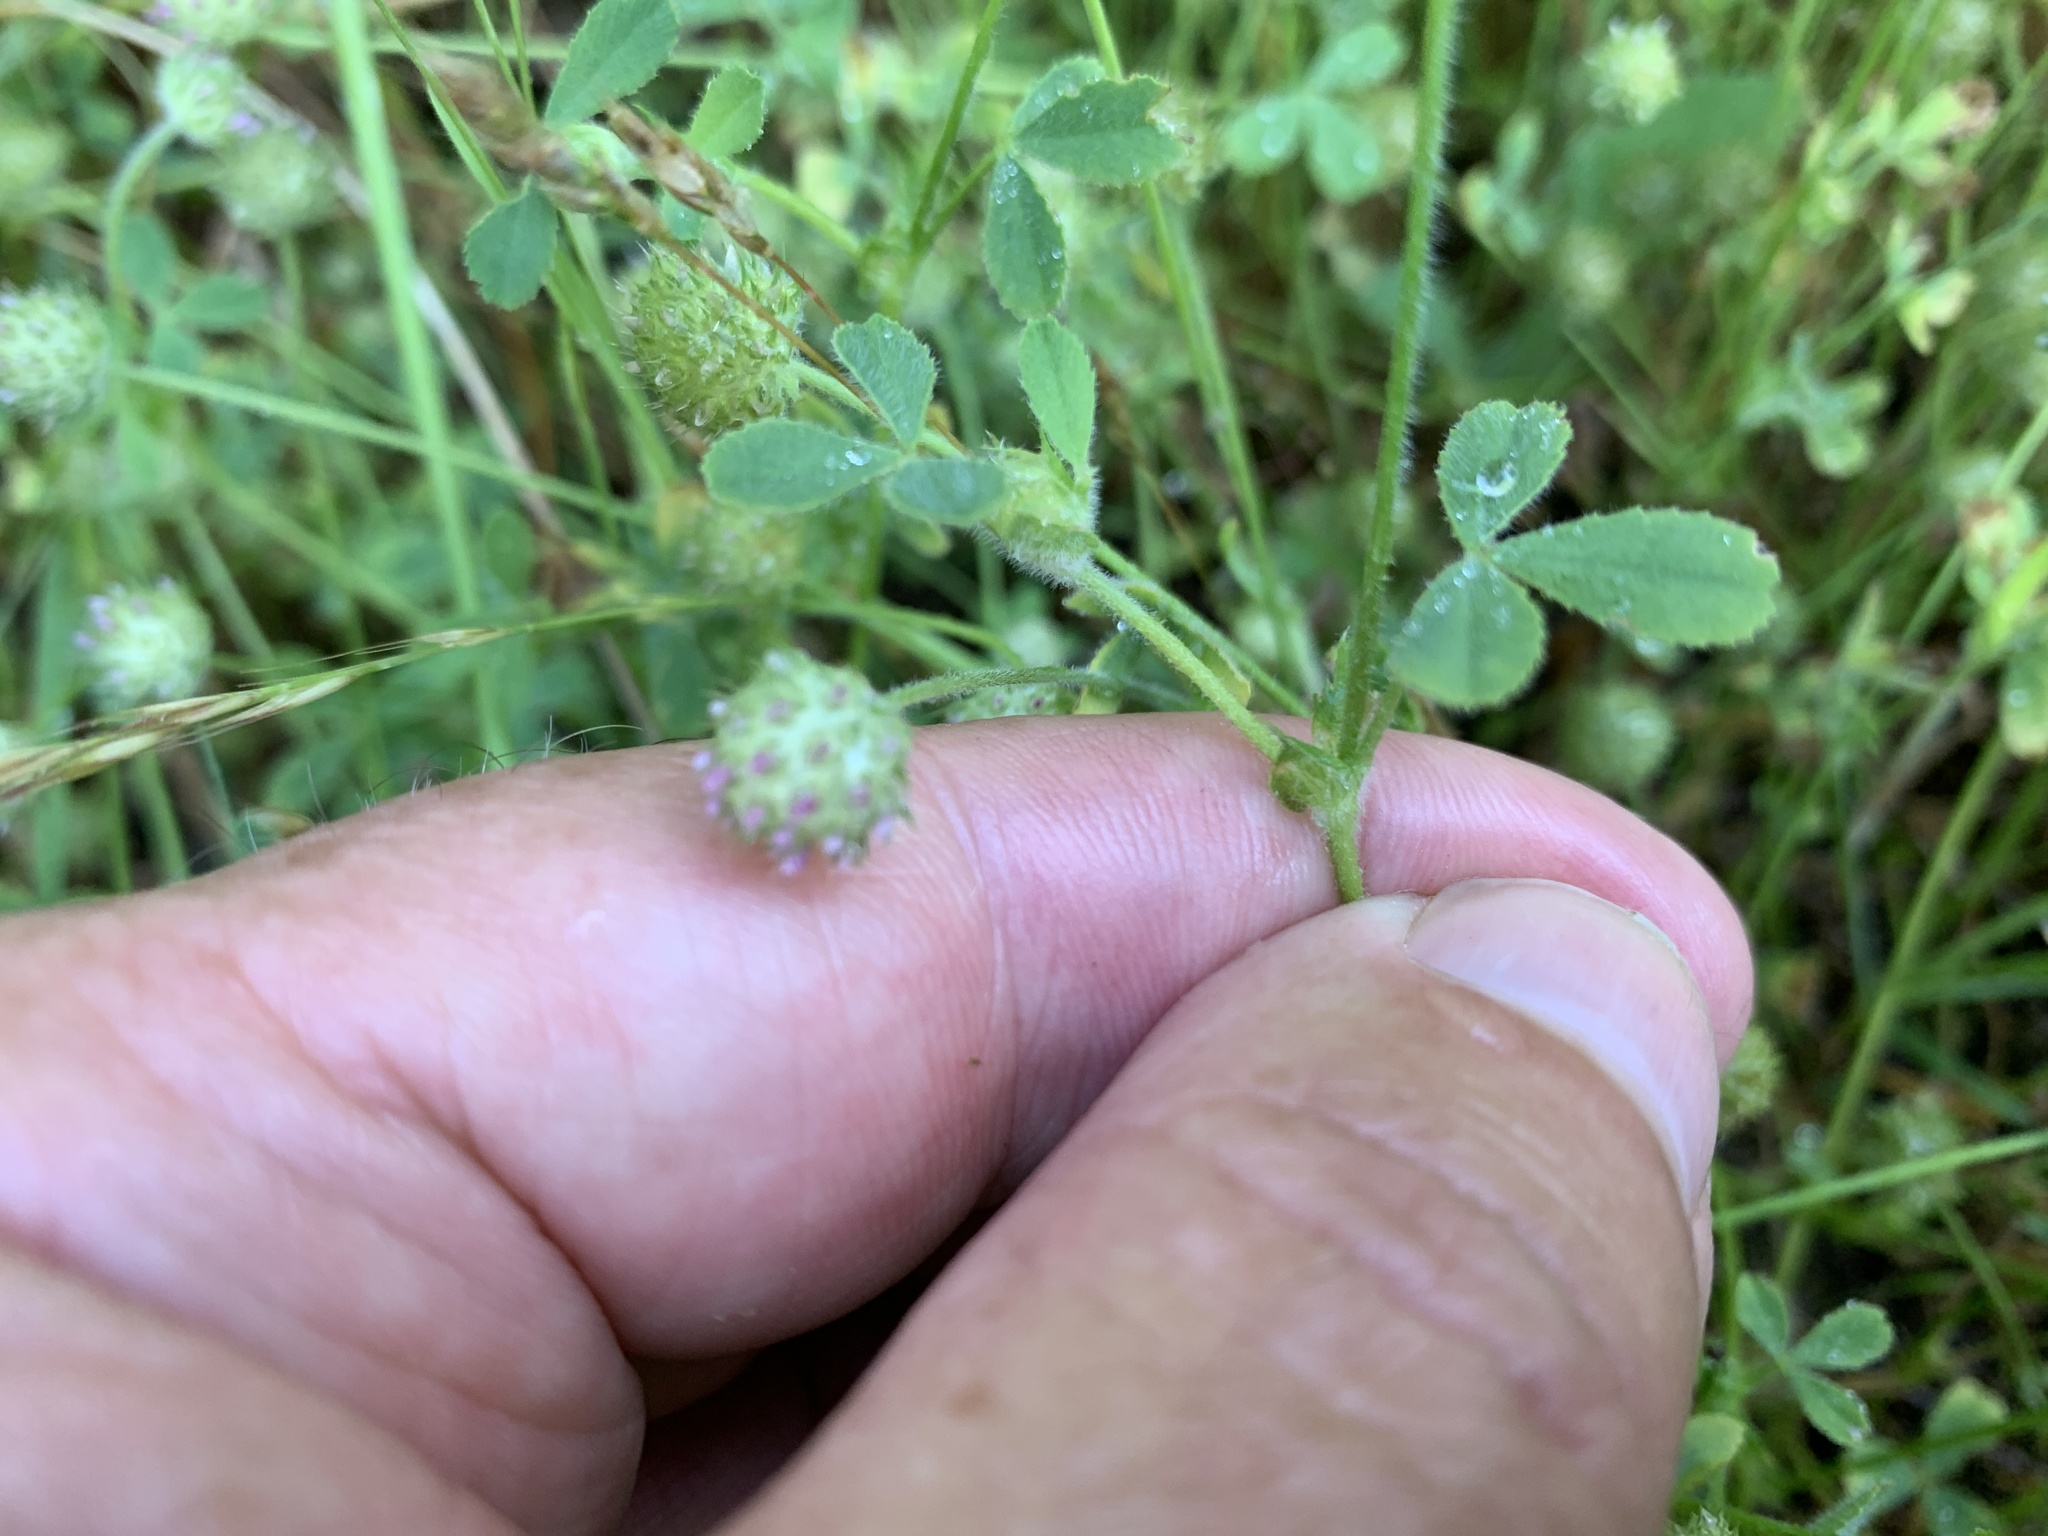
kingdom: Plantae
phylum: Tracheophyta
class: Magnoliopsida
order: Fabales
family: Fabaceae
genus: Trifolium
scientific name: Trifolium microcephalum
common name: Maiden clover
